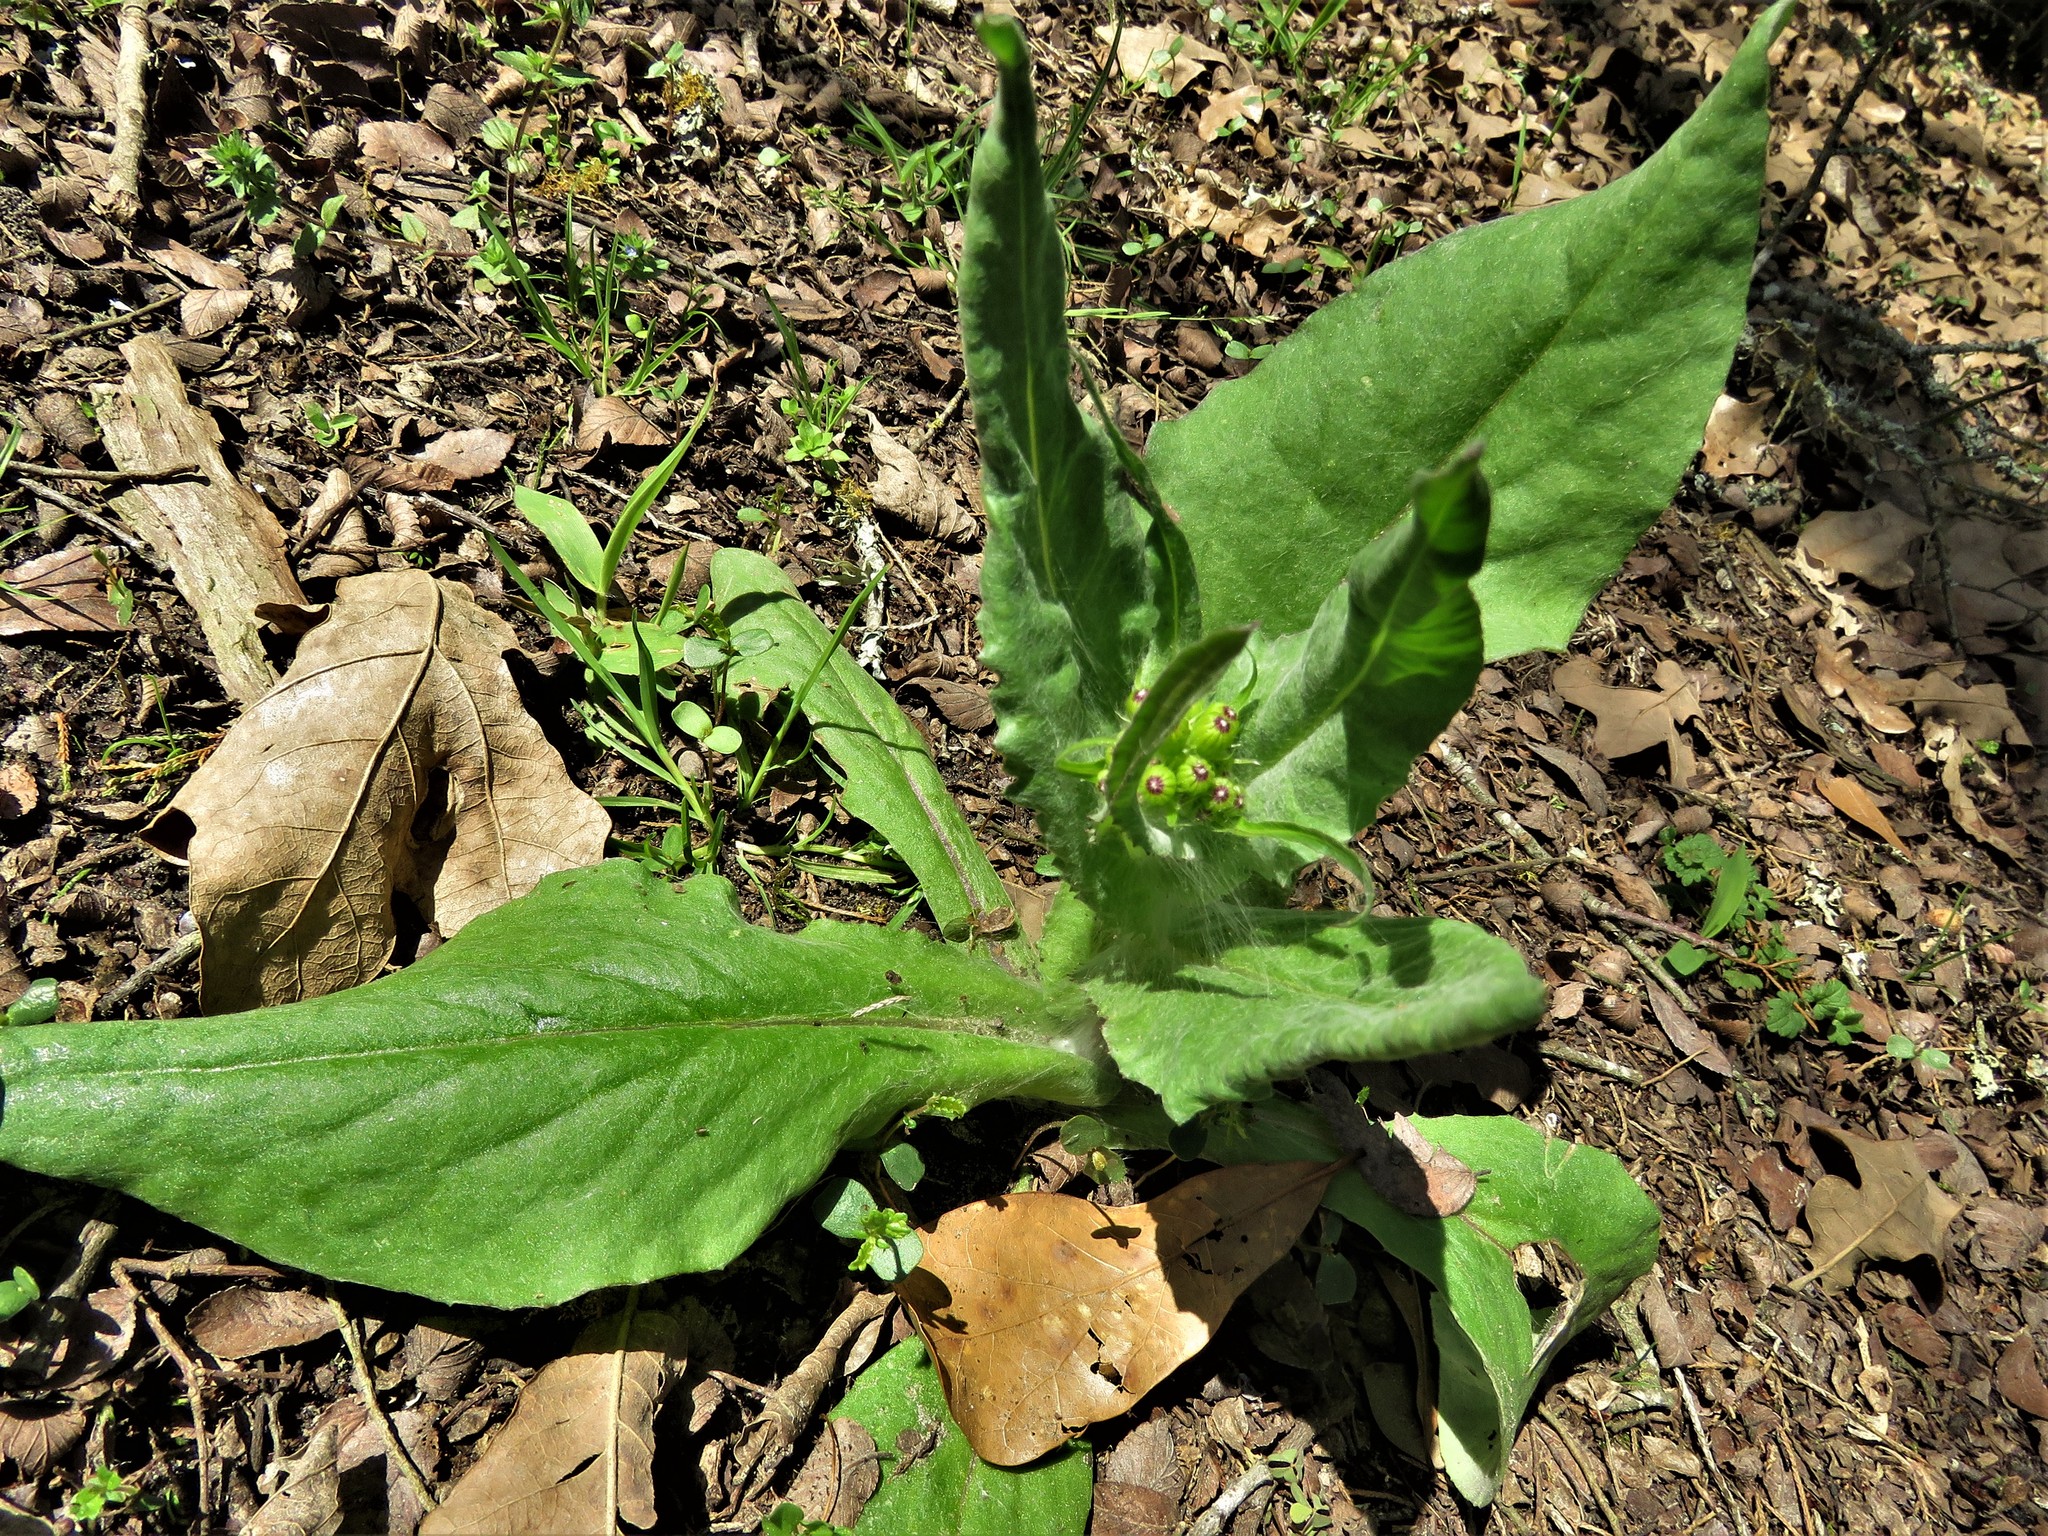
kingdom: Plantae
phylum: Tracheophyta
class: Magnoliopsida
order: Asterales
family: Asteraceae
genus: Senecio
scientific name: Senecio ampullaceus
